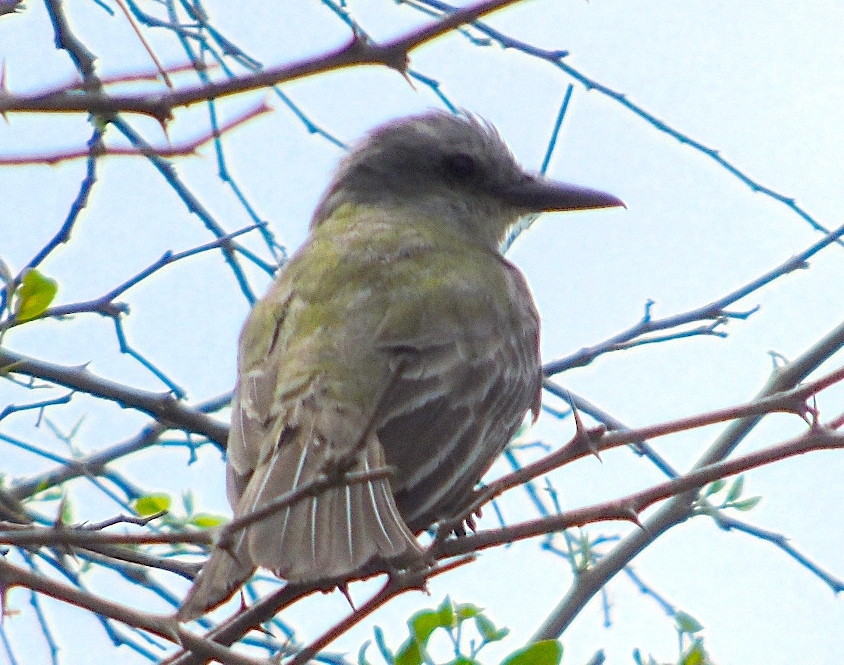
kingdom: Animalia
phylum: Chordata
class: Aves
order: Passeriformes
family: Tyrannidae
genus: Tyrannus
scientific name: Tyrannus melancholicus
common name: Tropical kingbird
